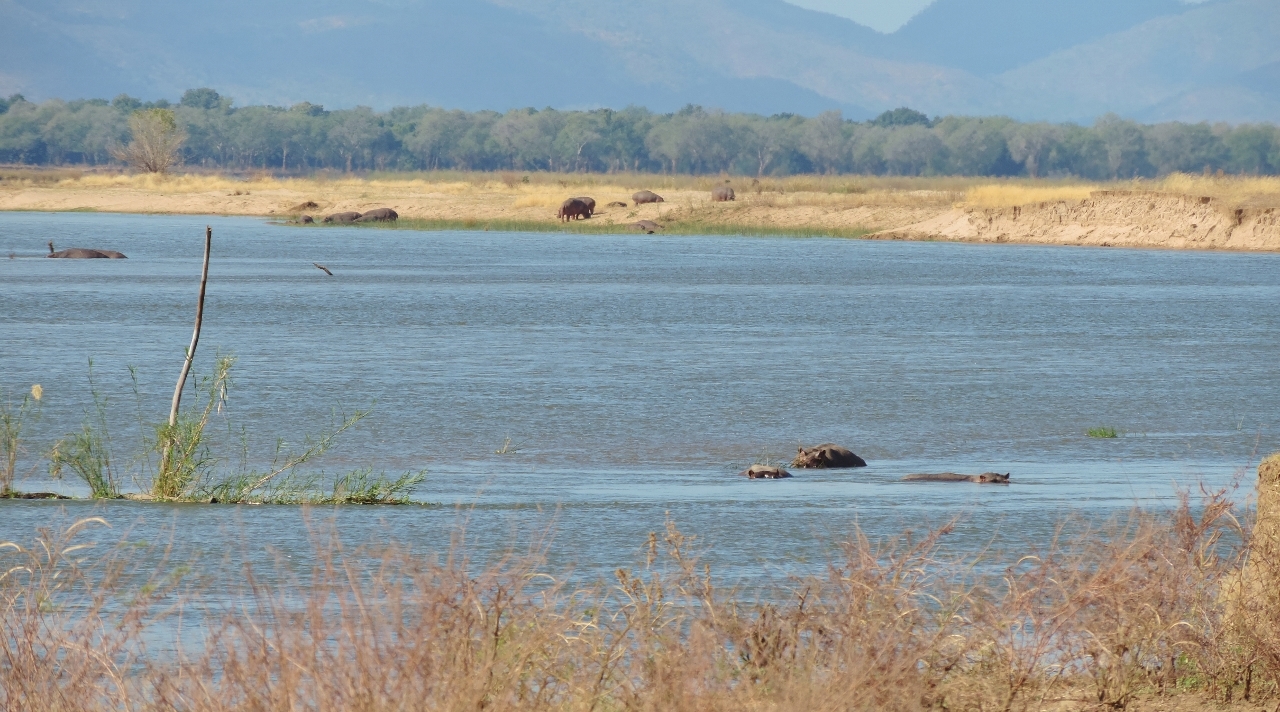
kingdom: Animalia
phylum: Chordata
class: Mammalia
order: Artiodactyla
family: Hippopotamidae
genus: Hippopotamus
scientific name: Hippopotamus amphibius
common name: Common hippopotamus
